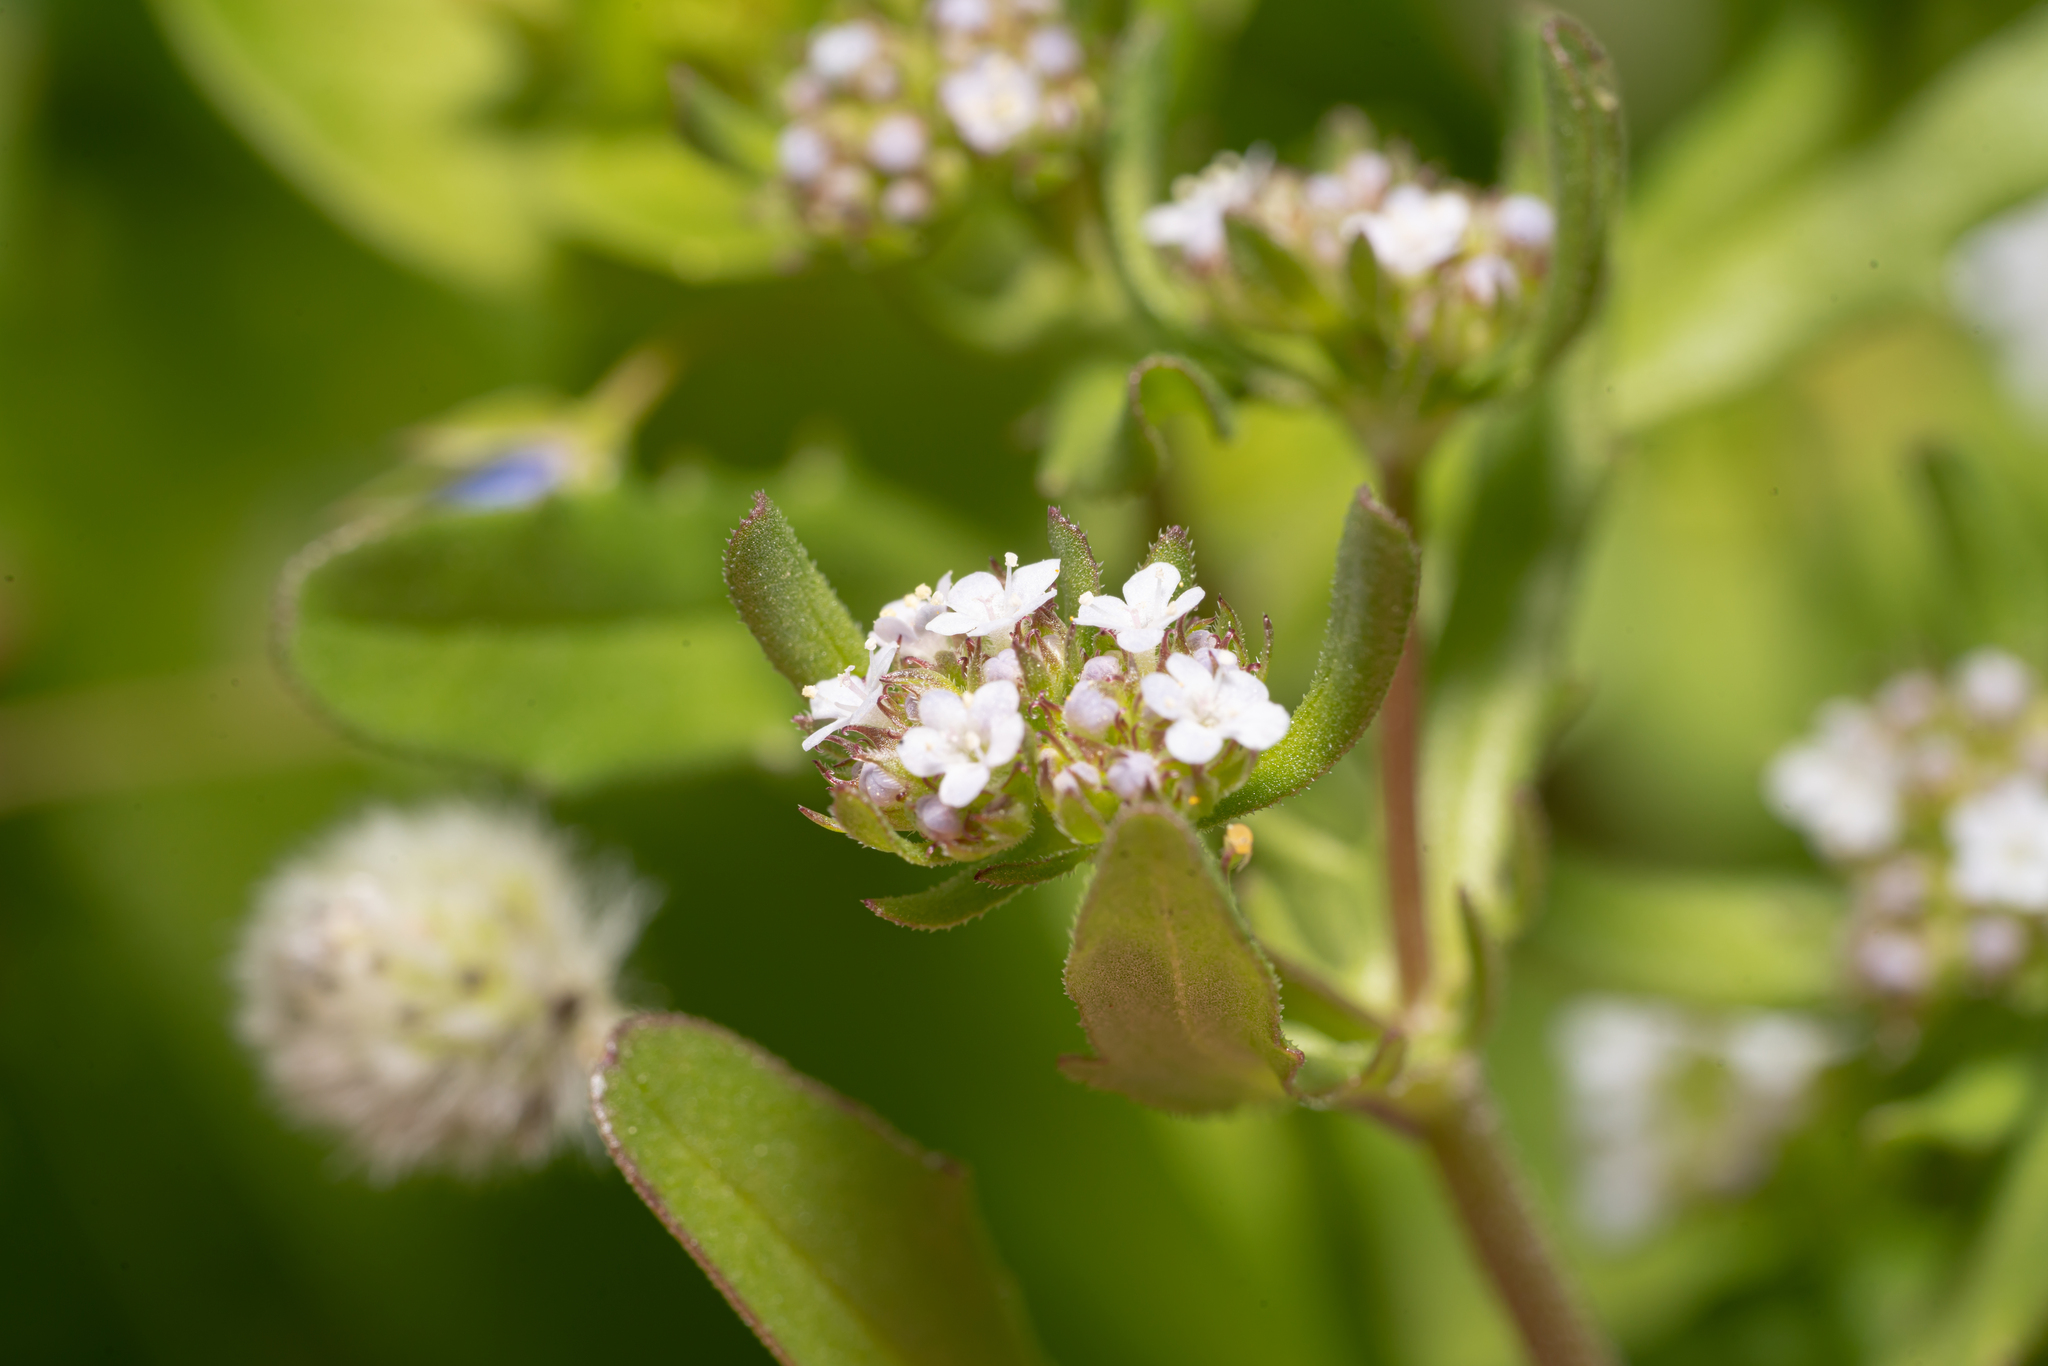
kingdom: Plantae
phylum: Tracheophyta
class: Magnoliopsida
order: Dipsacales
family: Caprifoliaceae
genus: Valerianella
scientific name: Valerianella discoidea
